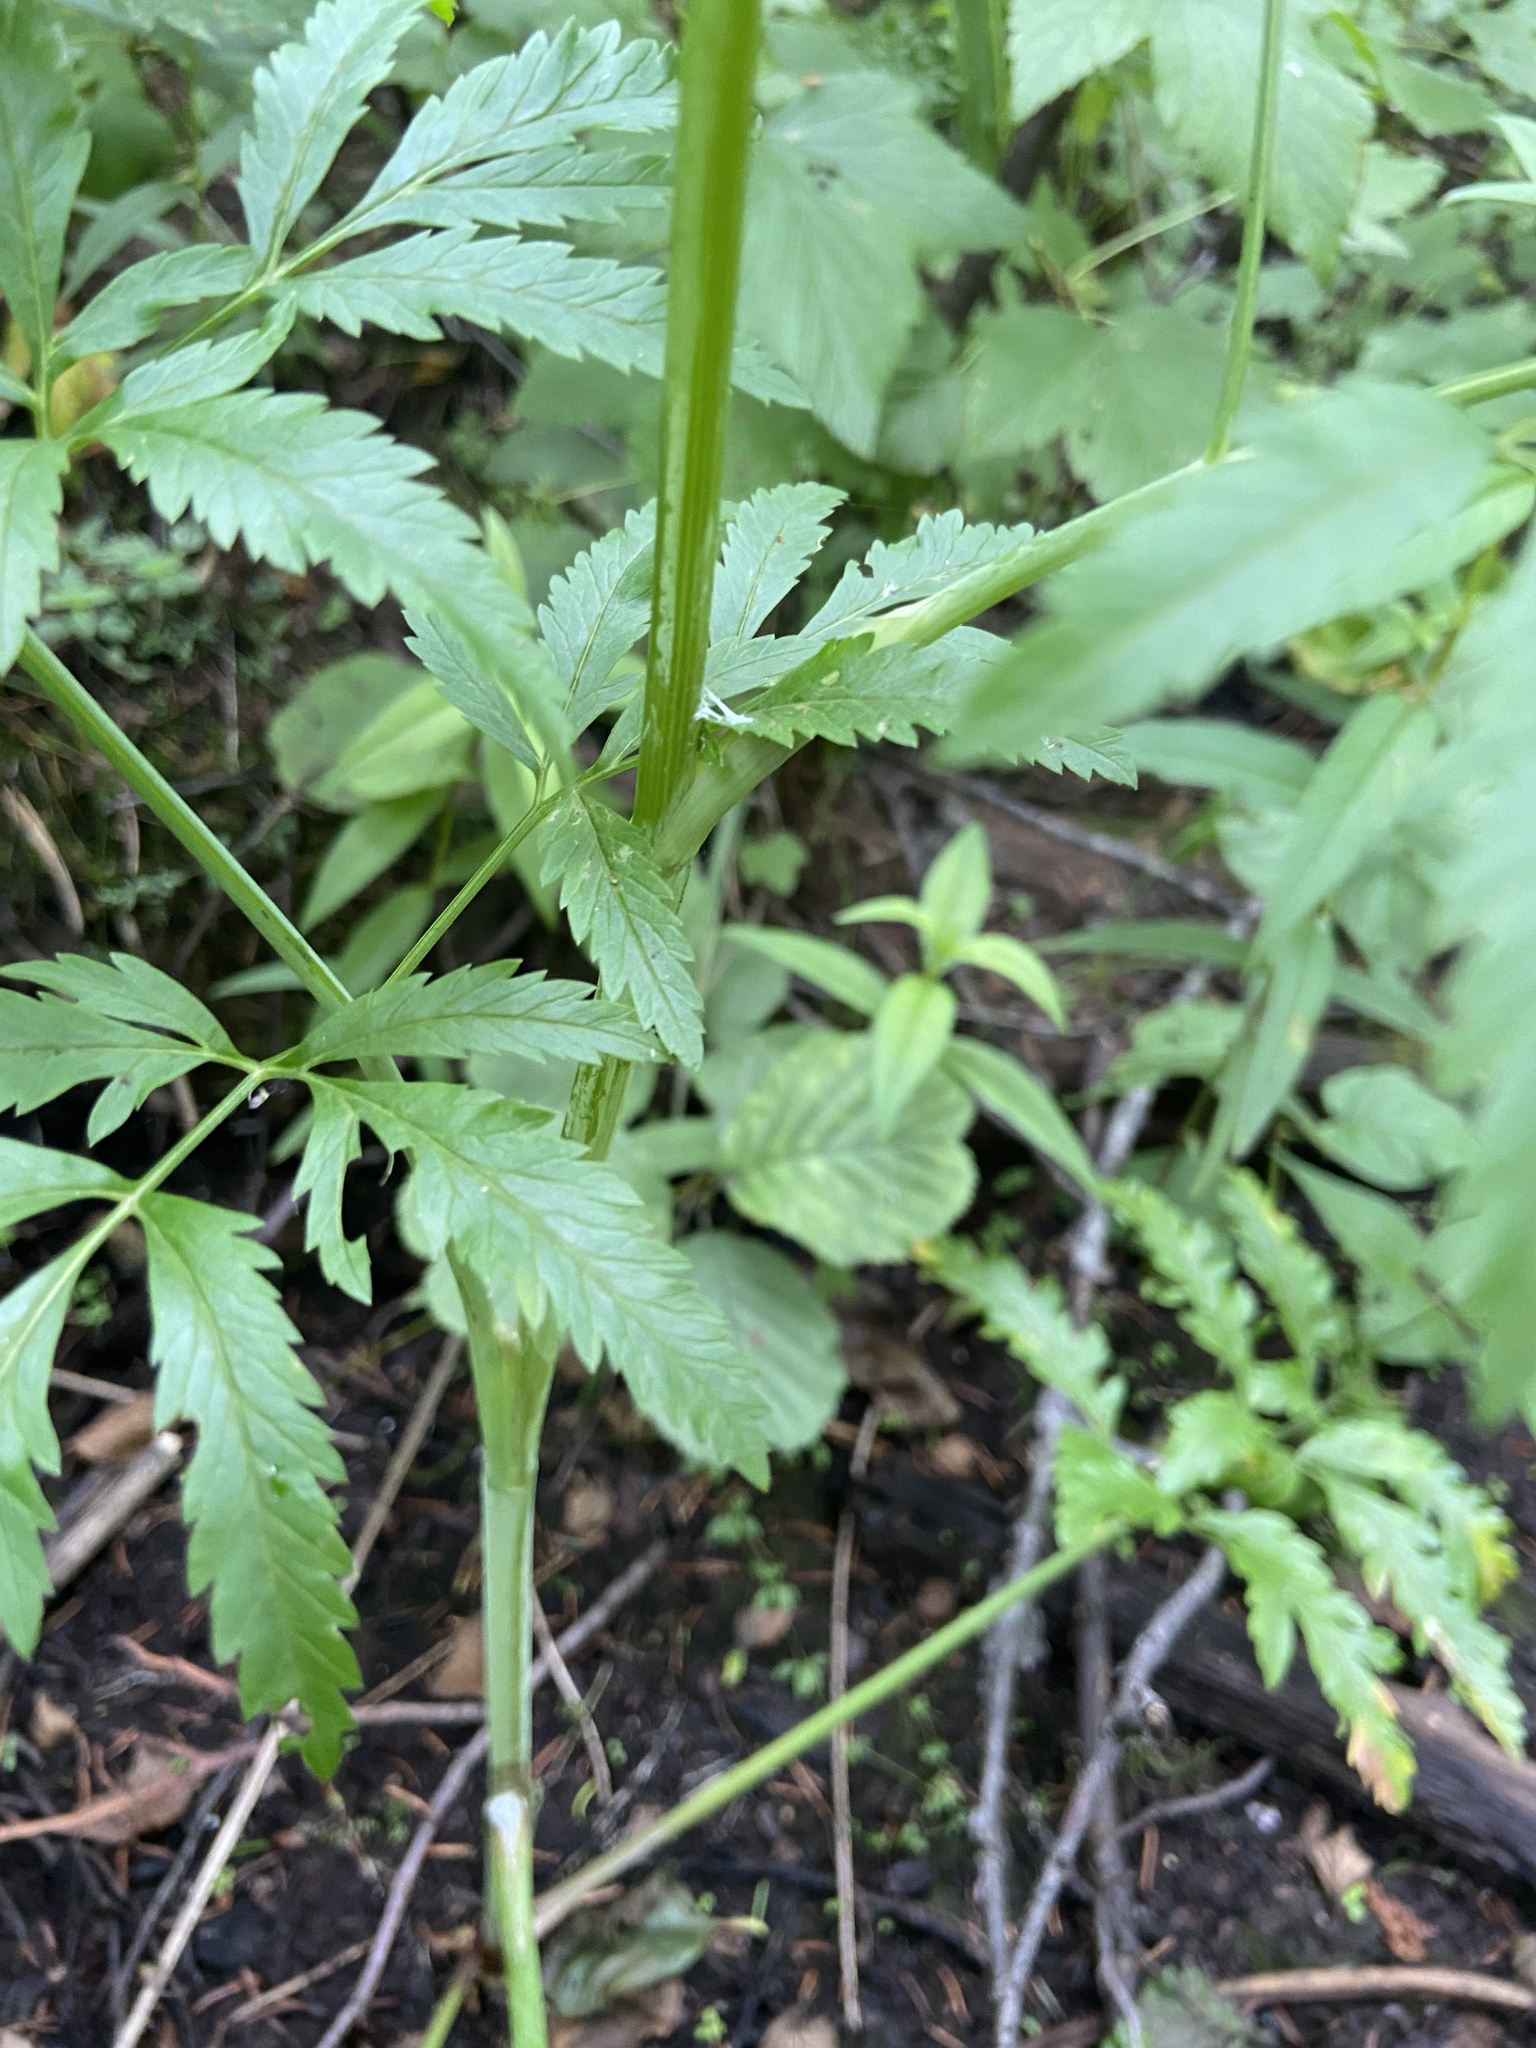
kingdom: Plantae
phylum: Tracheophyta
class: Magnoliopsida
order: Apiales
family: Apiaceae
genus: Cicuta
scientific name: Cicuta virosa
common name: Cowbane
